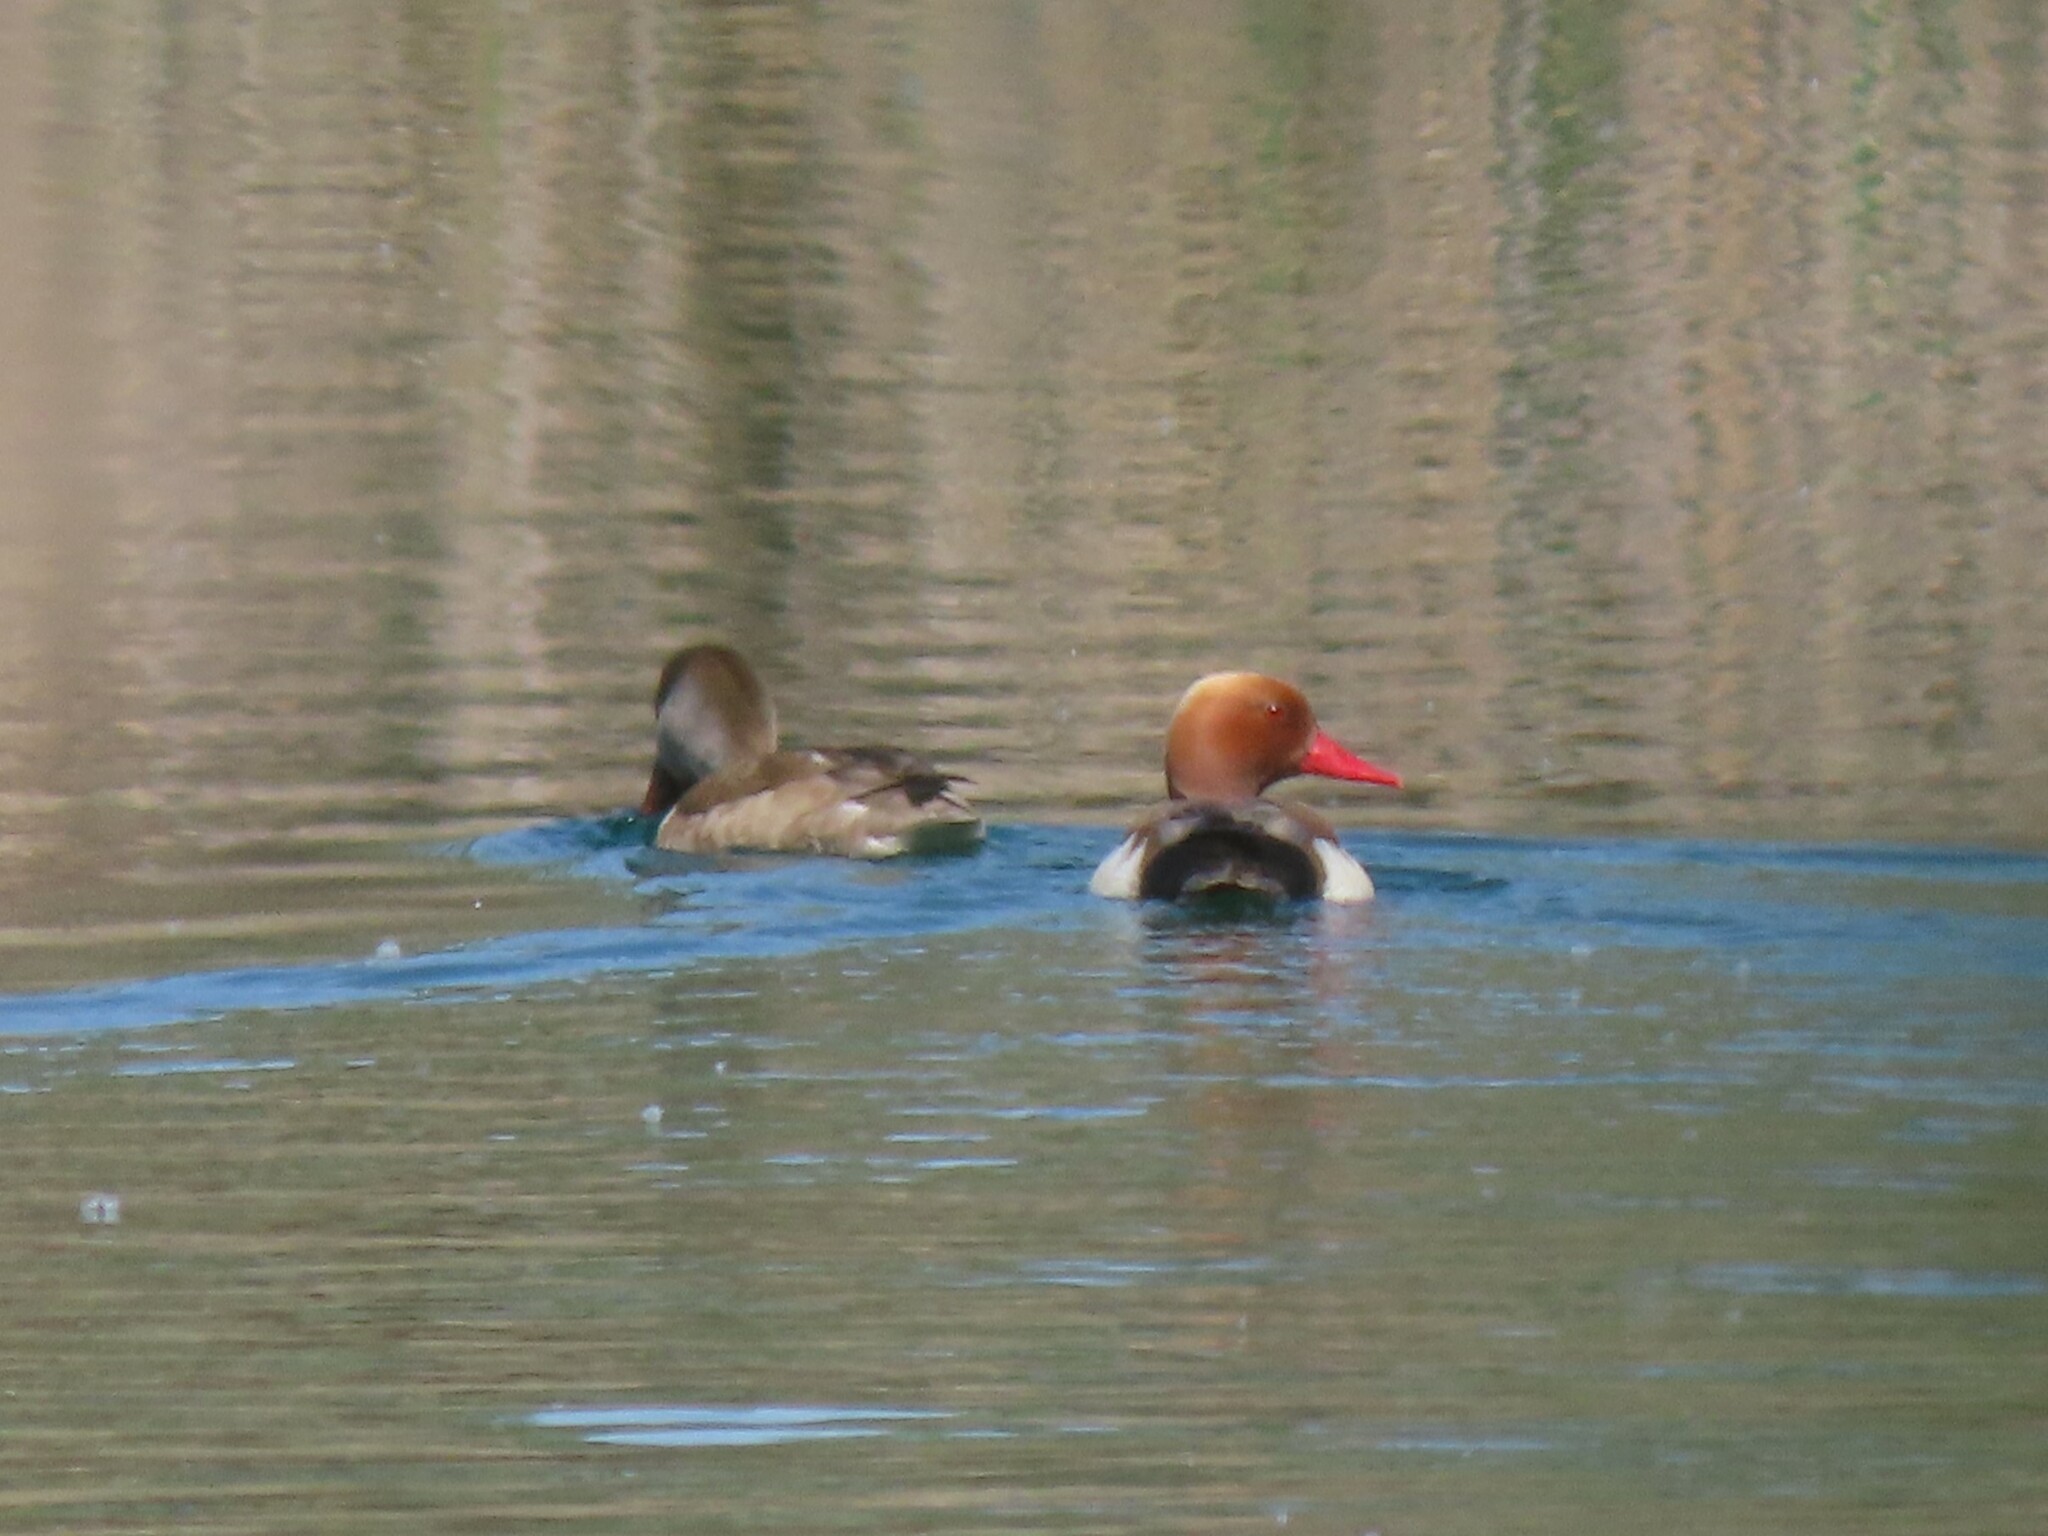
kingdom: Animalia
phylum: Chordata
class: Aves
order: Anseriformes
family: Anatidae
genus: Netta
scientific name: Netta rufina
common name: Red-crested pochard
